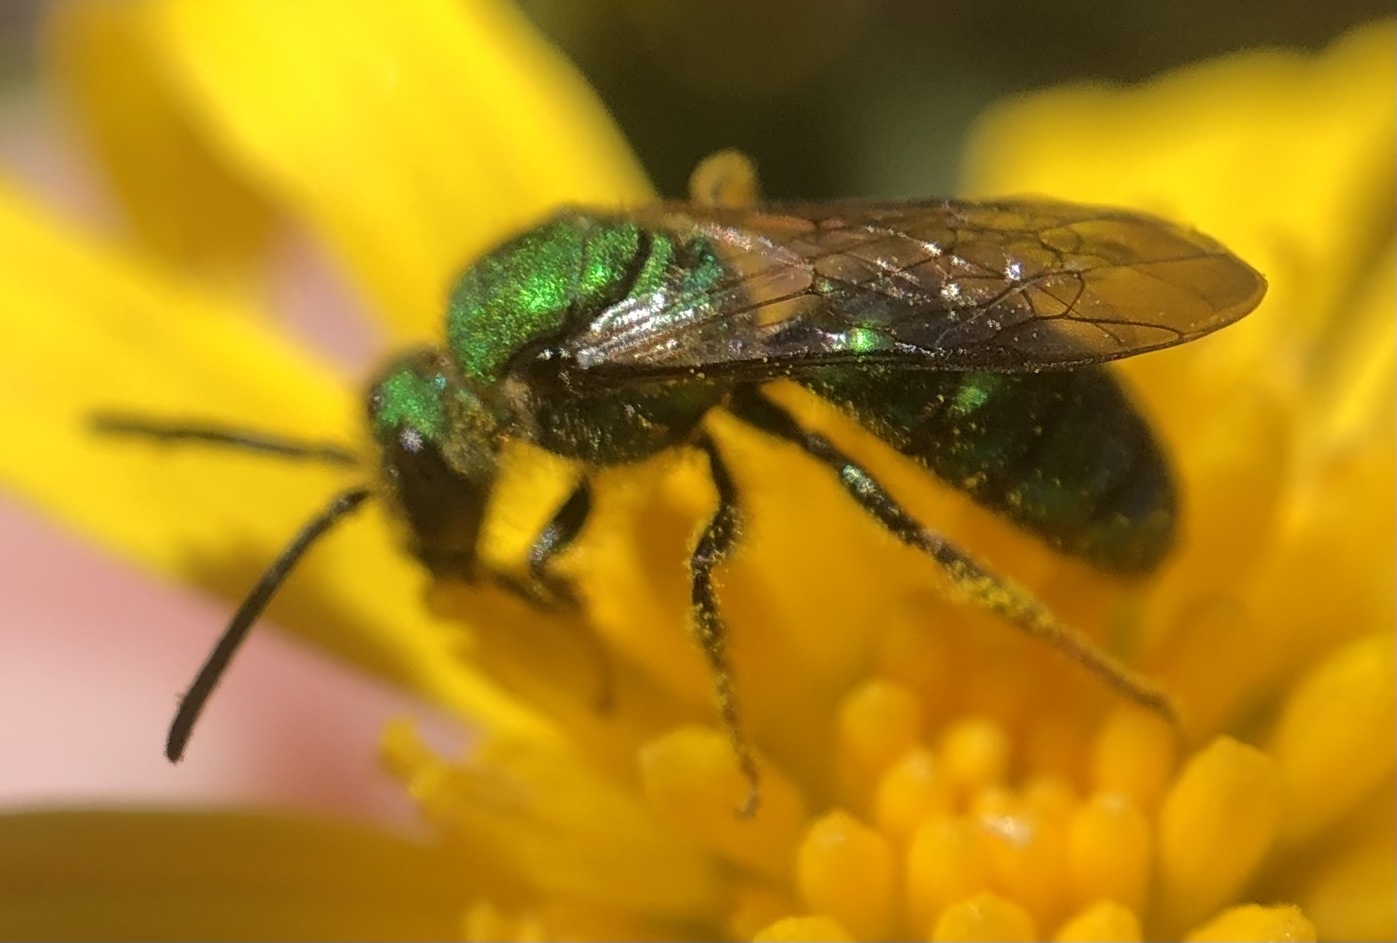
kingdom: Animalia
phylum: Arthropoda
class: Insecta
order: Hymenoptera
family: Halictidae
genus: Augochlora
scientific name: Augochlora pura
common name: Pure green sweat bee
